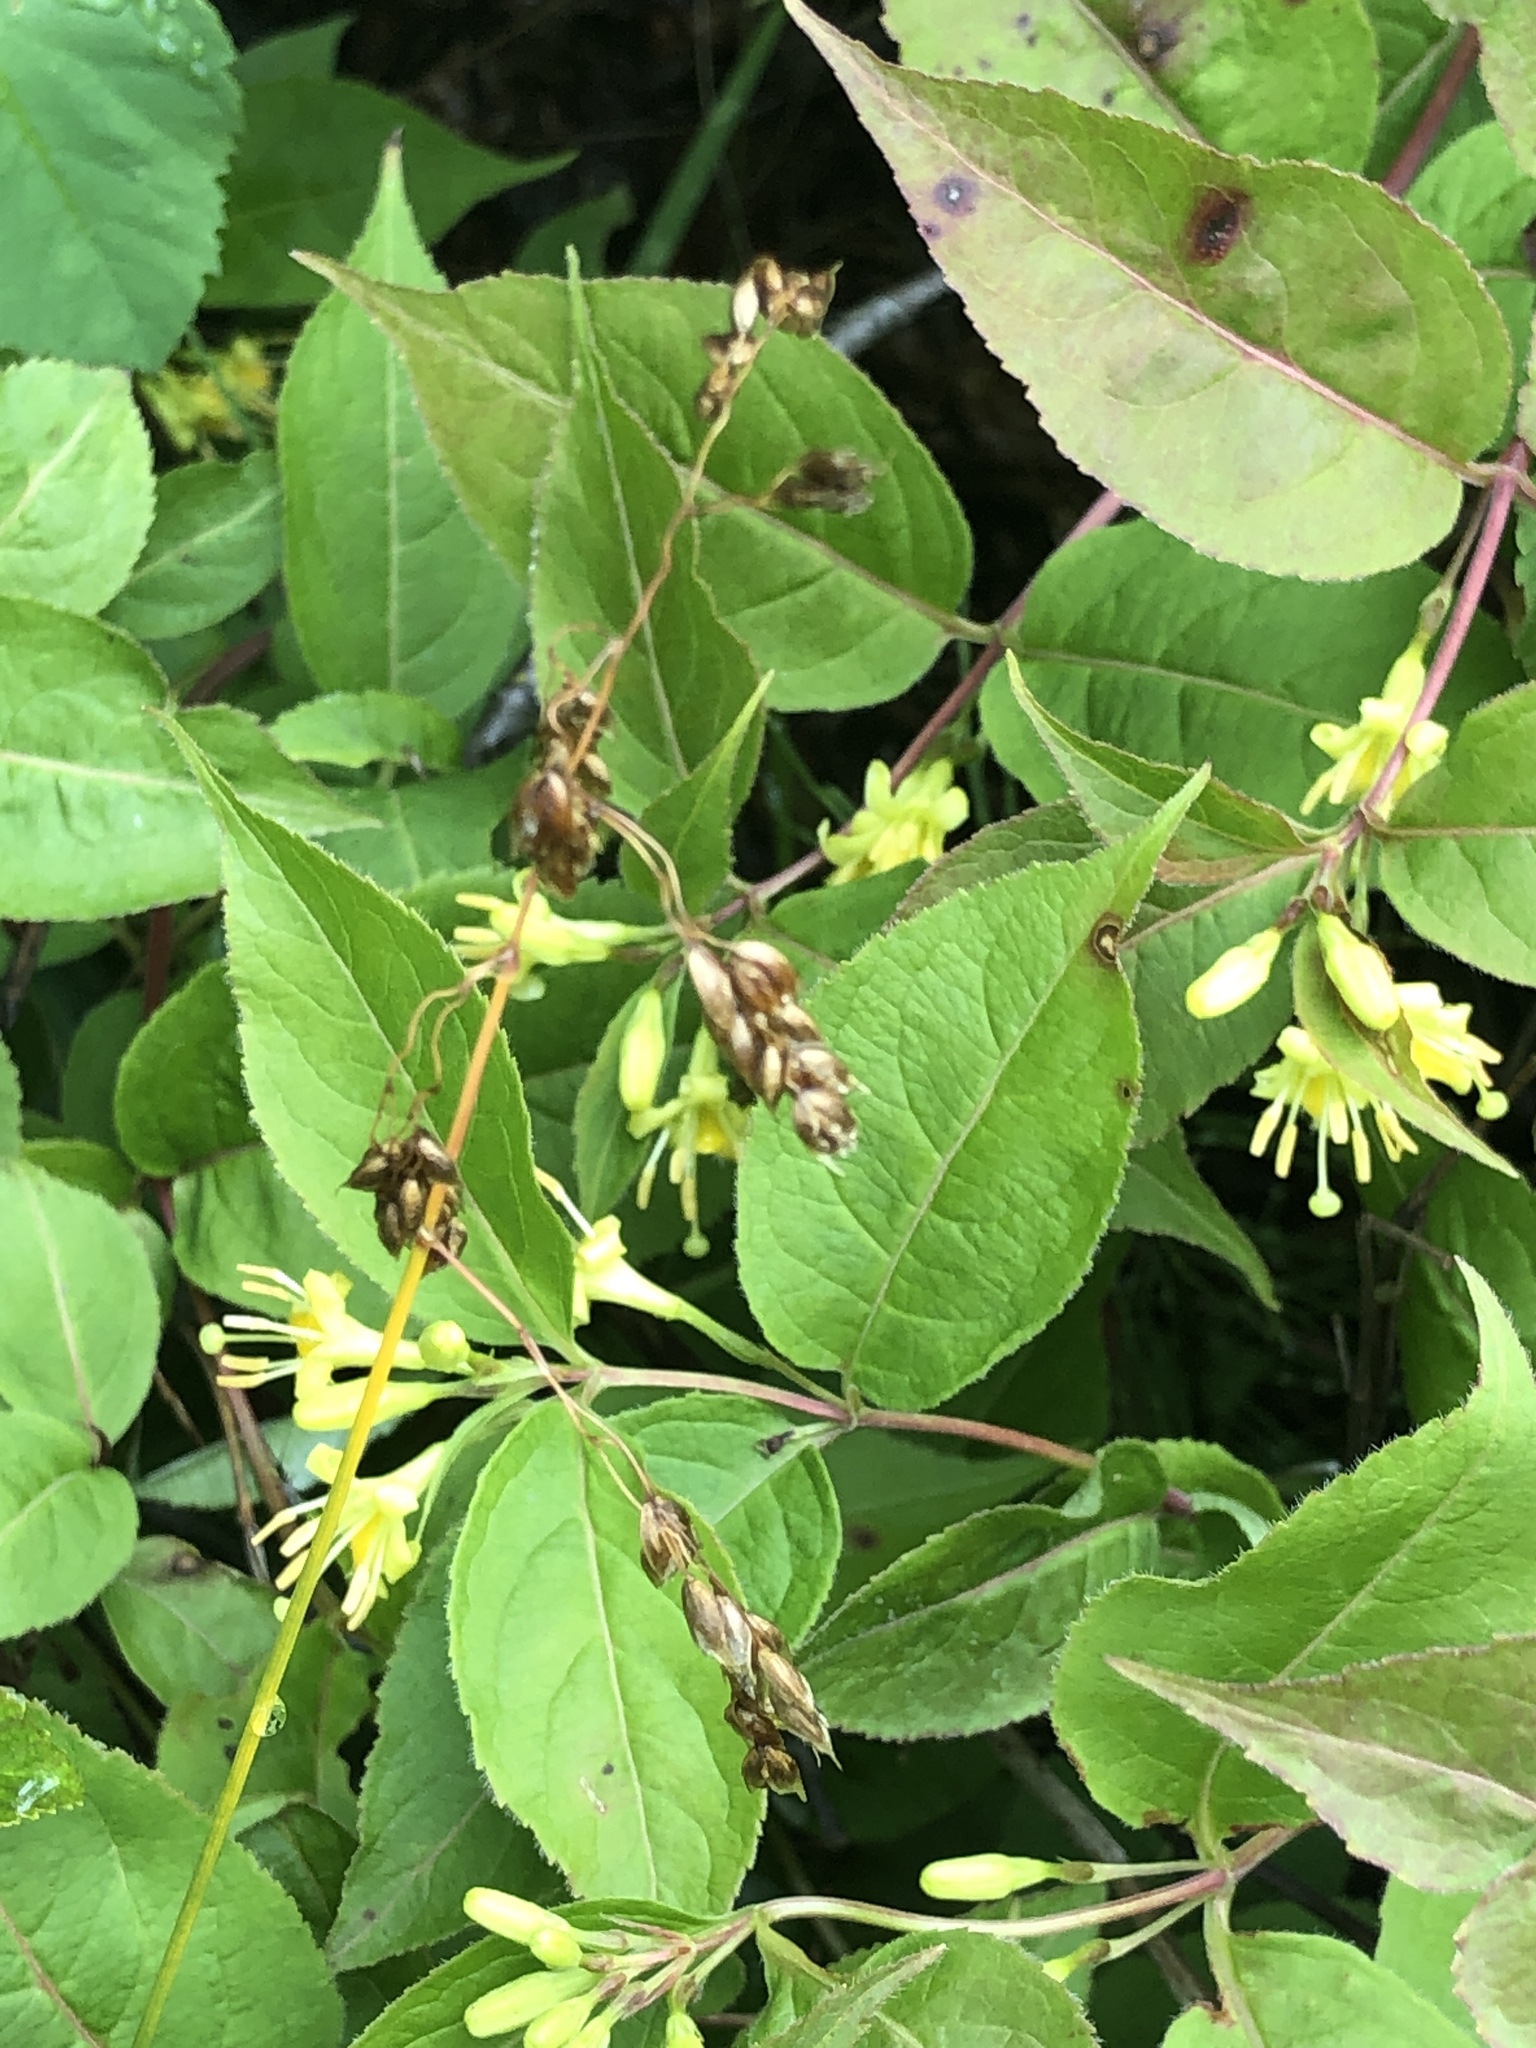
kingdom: Plantae
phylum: Tracheophyta
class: Liliopsida
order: Poales
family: Poaceae
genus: Anthoxanthum
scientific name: Anthoxanthum nitens
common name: Holy grass
